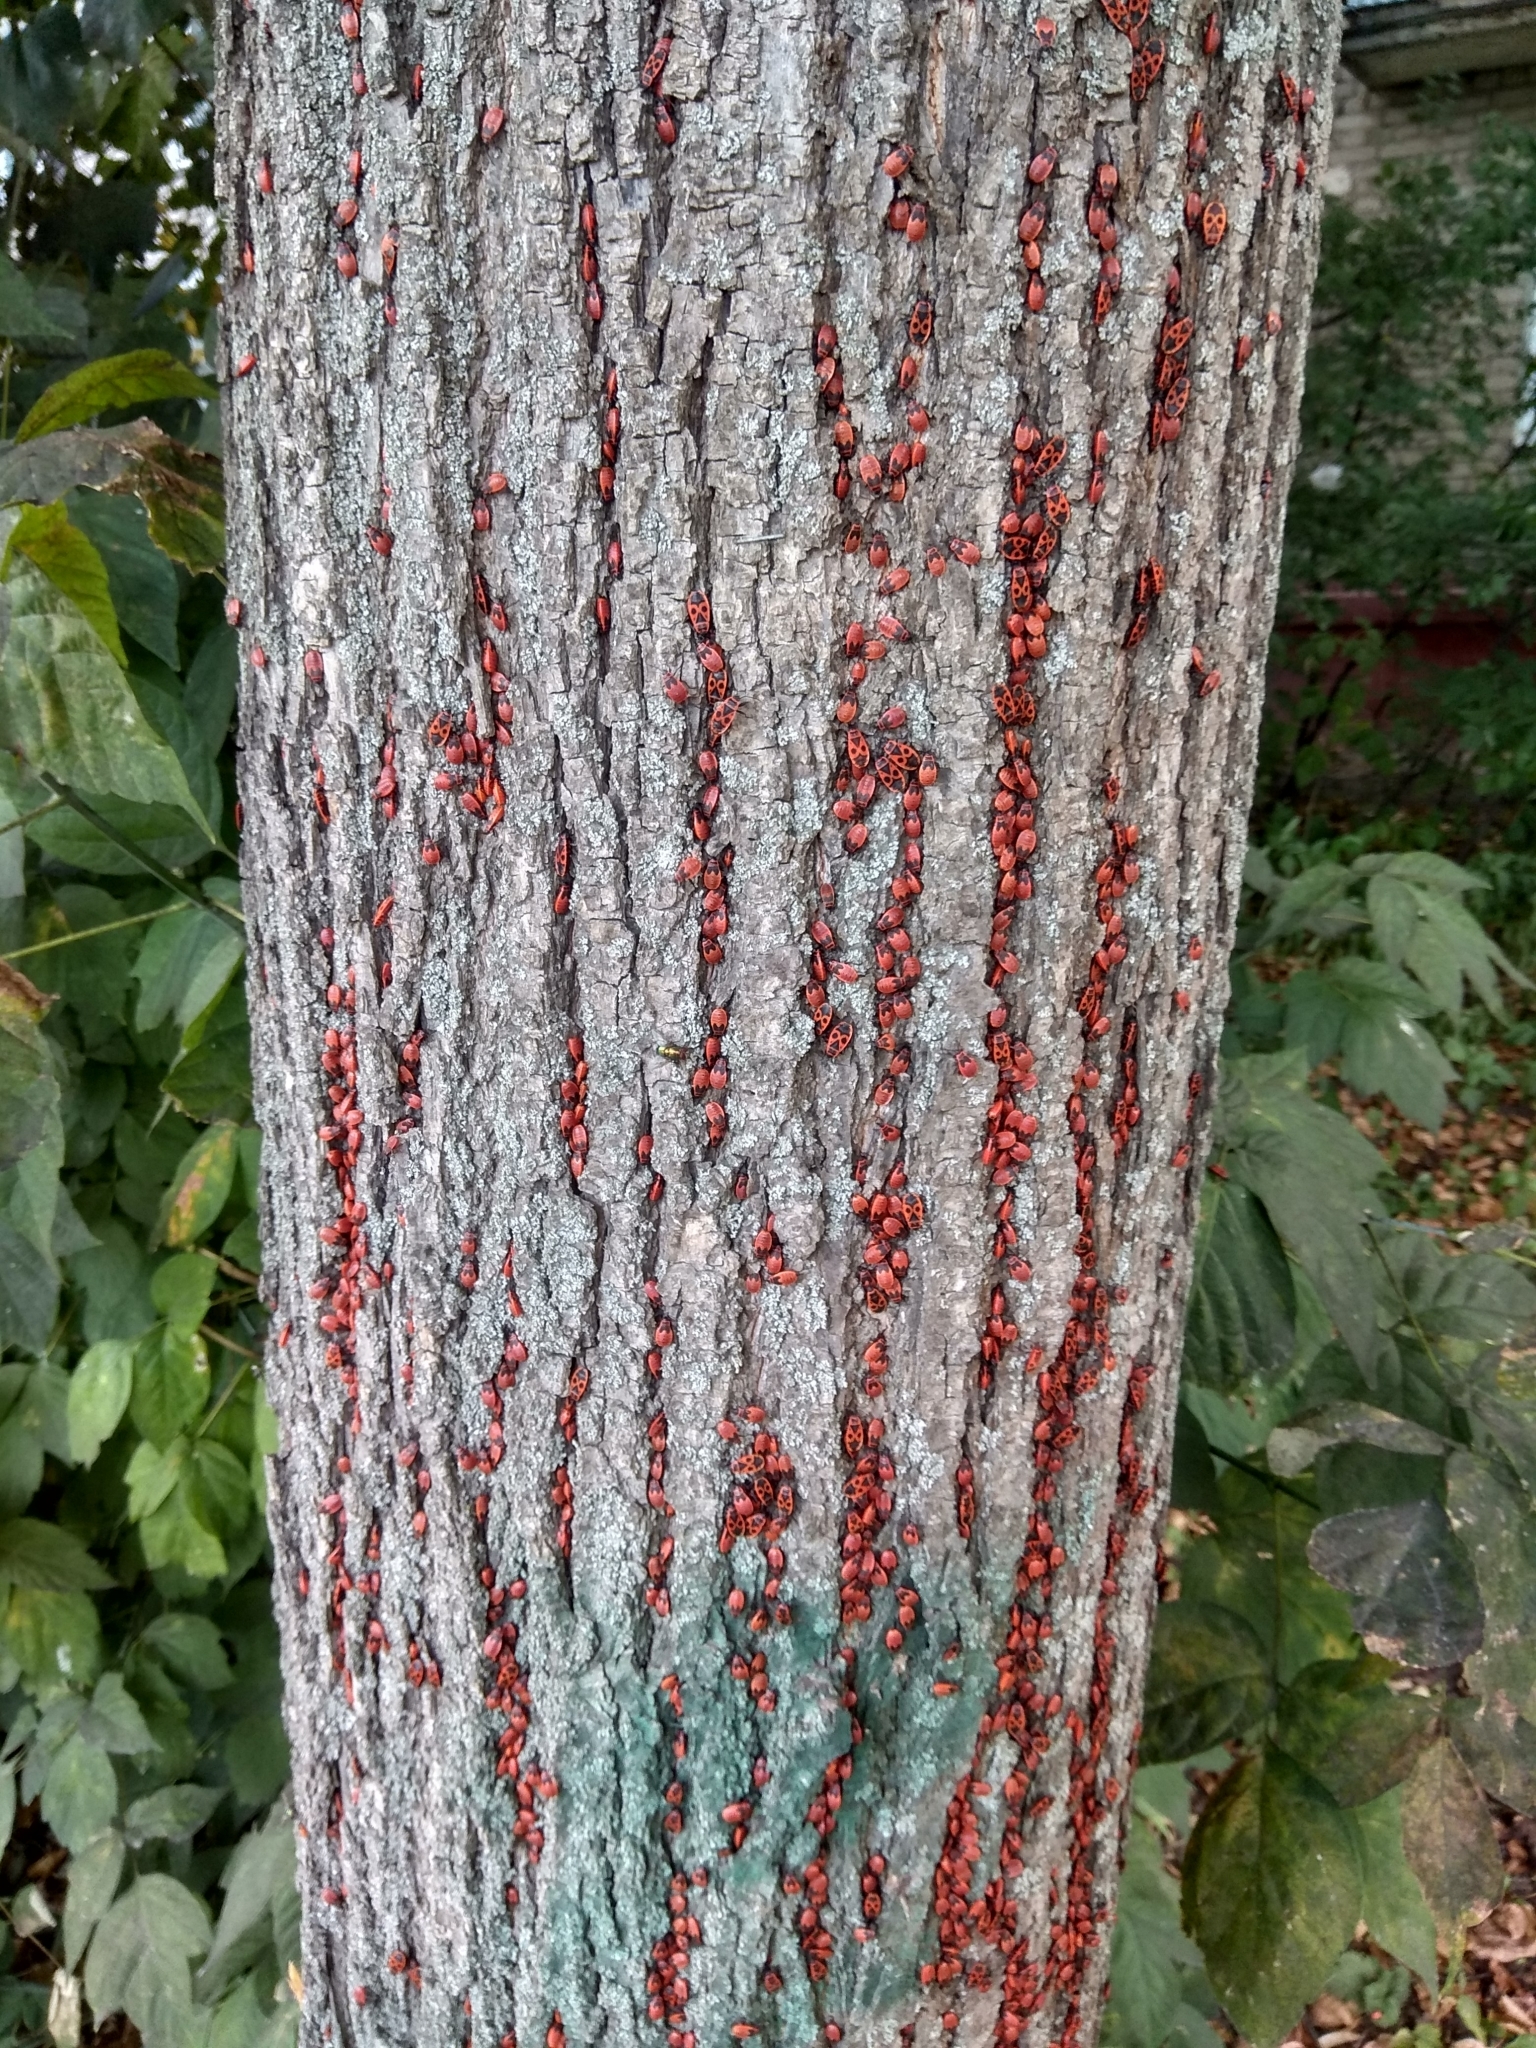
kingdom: Animalia
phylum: Arthropoda
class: Insecta
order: Hemiptera
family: Pyrrhocoridae
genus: Pyrrhocoris
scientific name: Pyrrhocoris apterus
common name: Firebug
